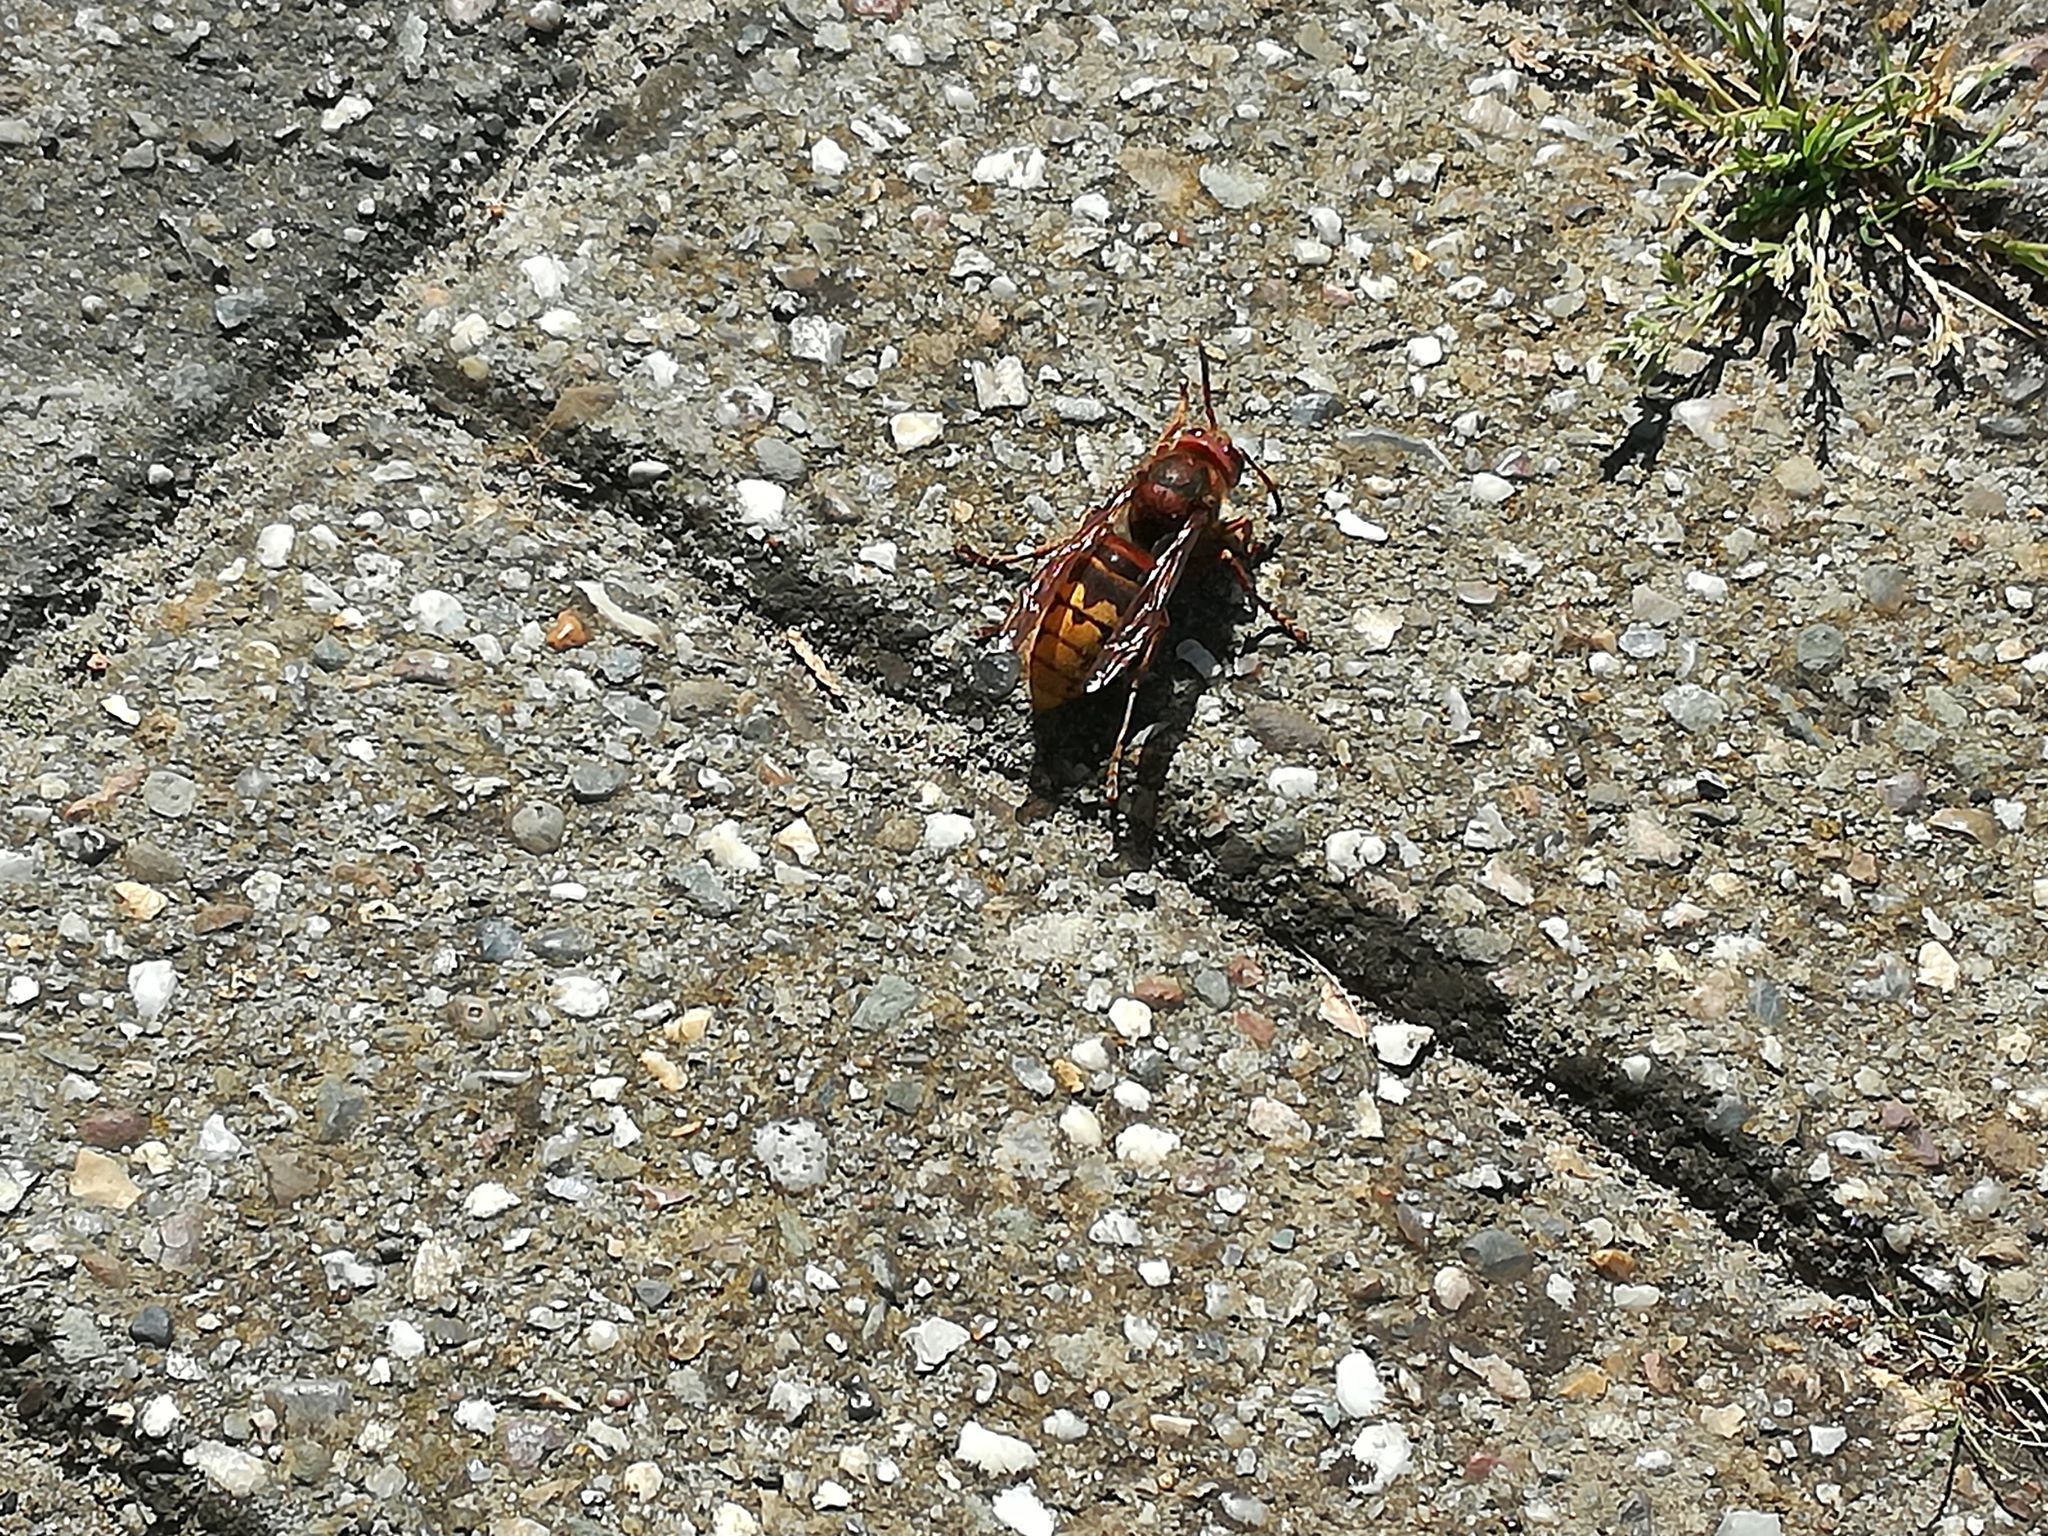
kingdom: Animalia
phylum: Arthropoda
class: Insecta
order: Hymenoptera
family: Vespidae
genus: Vespa
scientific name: Vespa crabro
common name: Hornet
